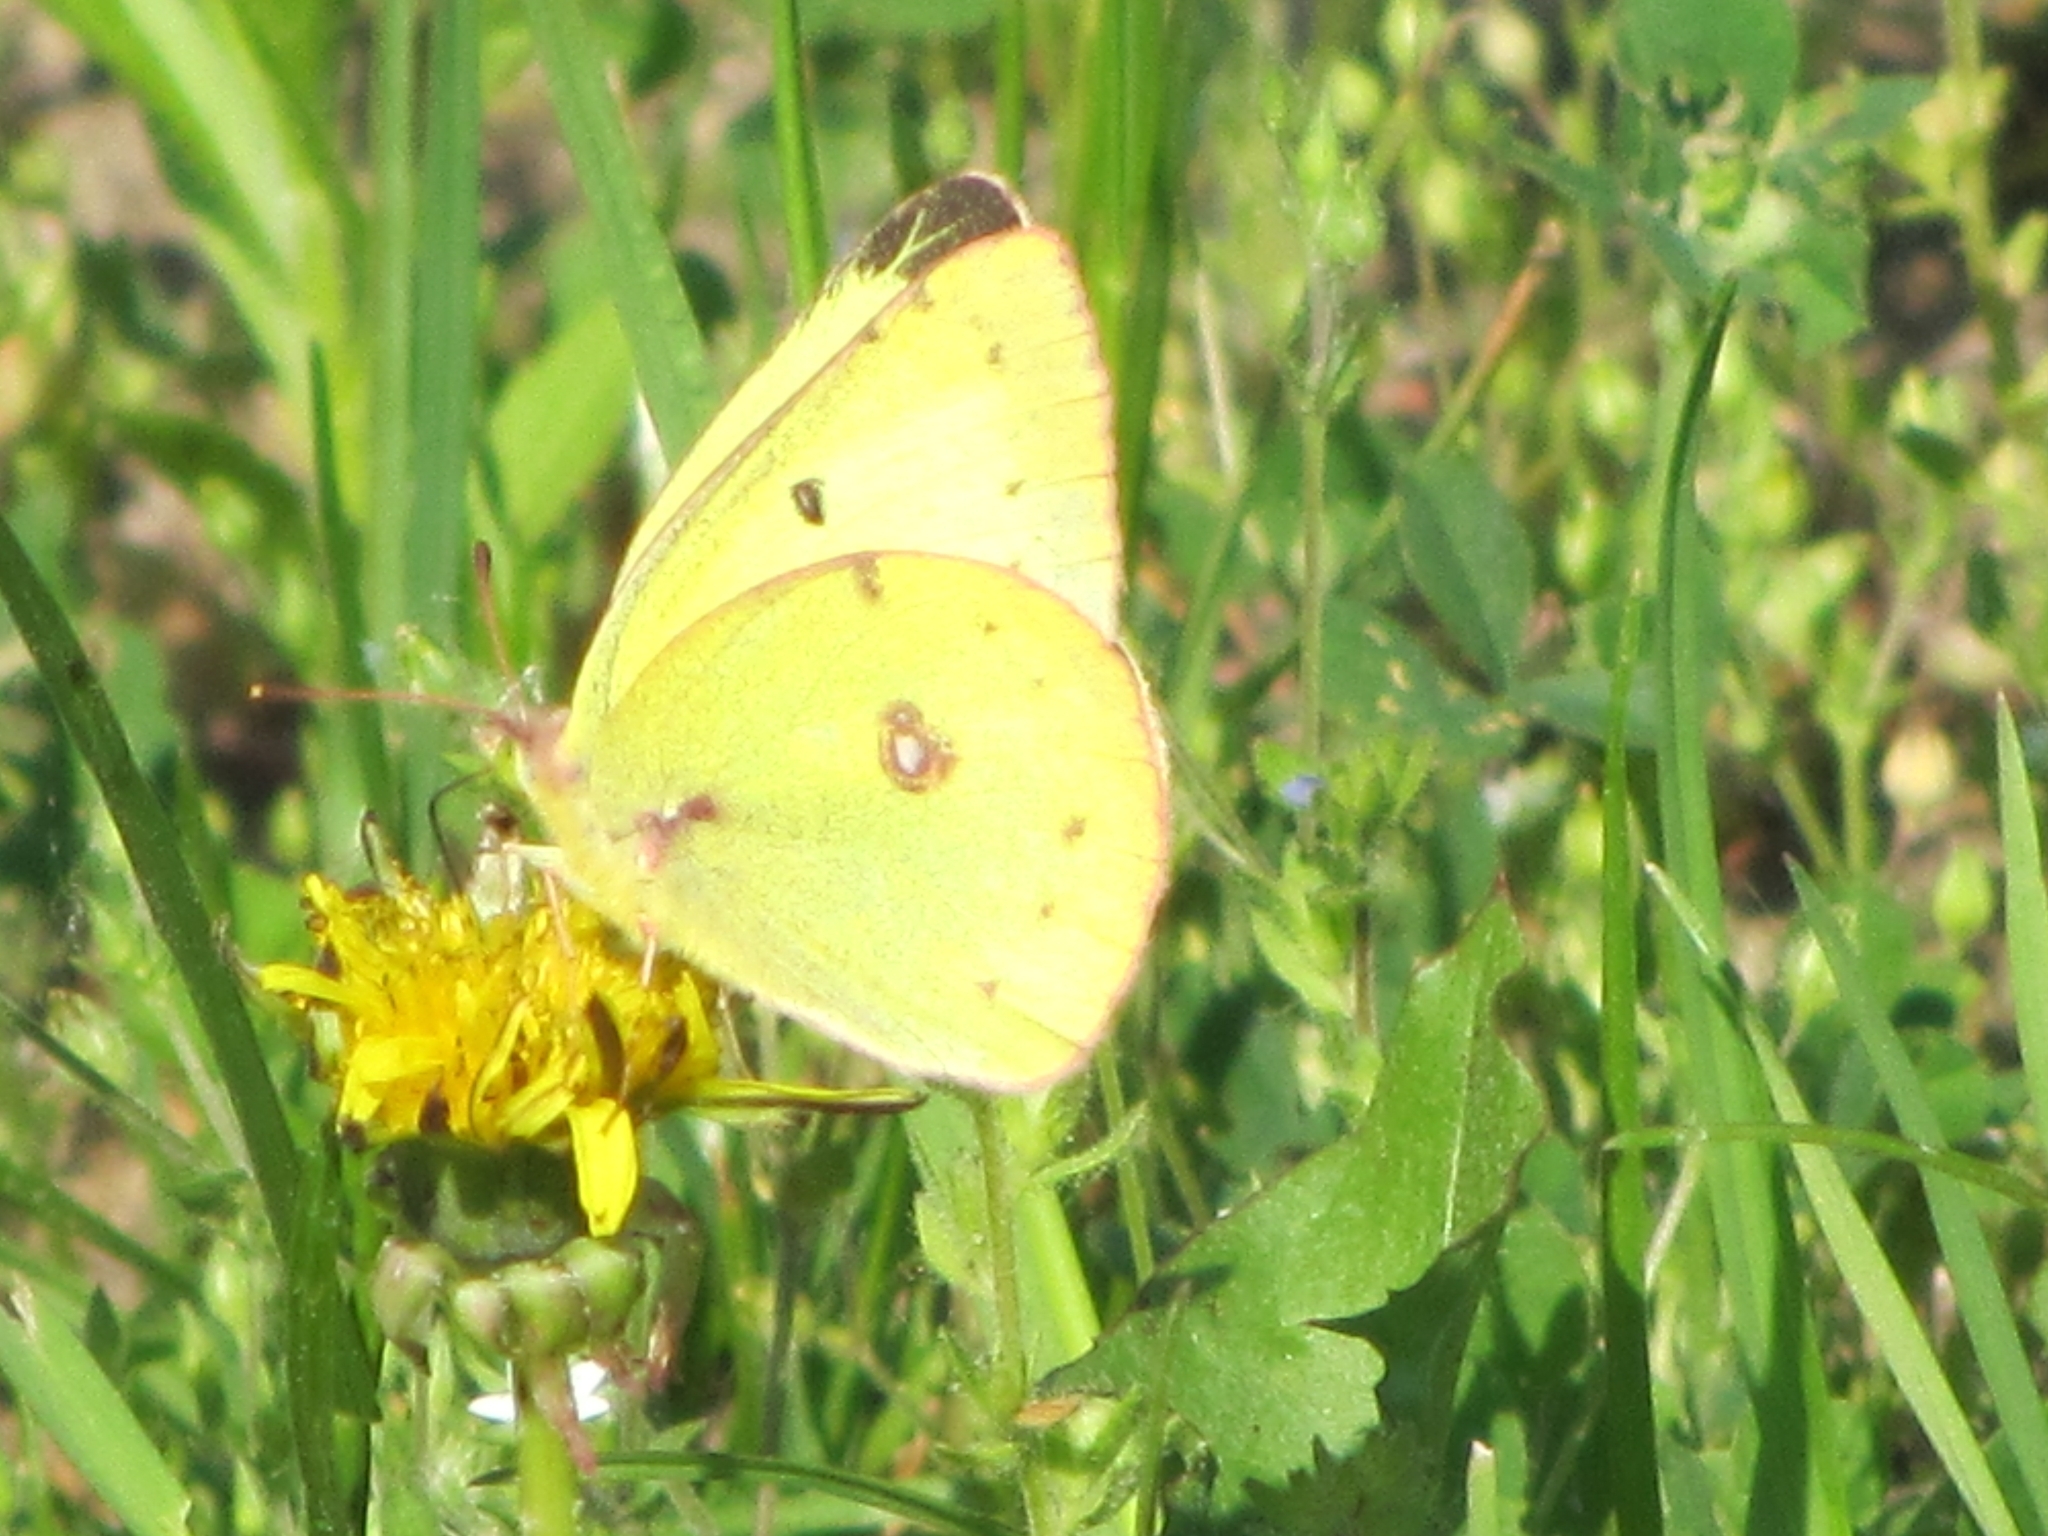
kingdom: Animalia
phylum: Arthropoda
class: Insecta
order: Lepidoptera
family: Pieridae
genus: Colias
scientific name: Colias philodice
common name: Clouded sulphur
